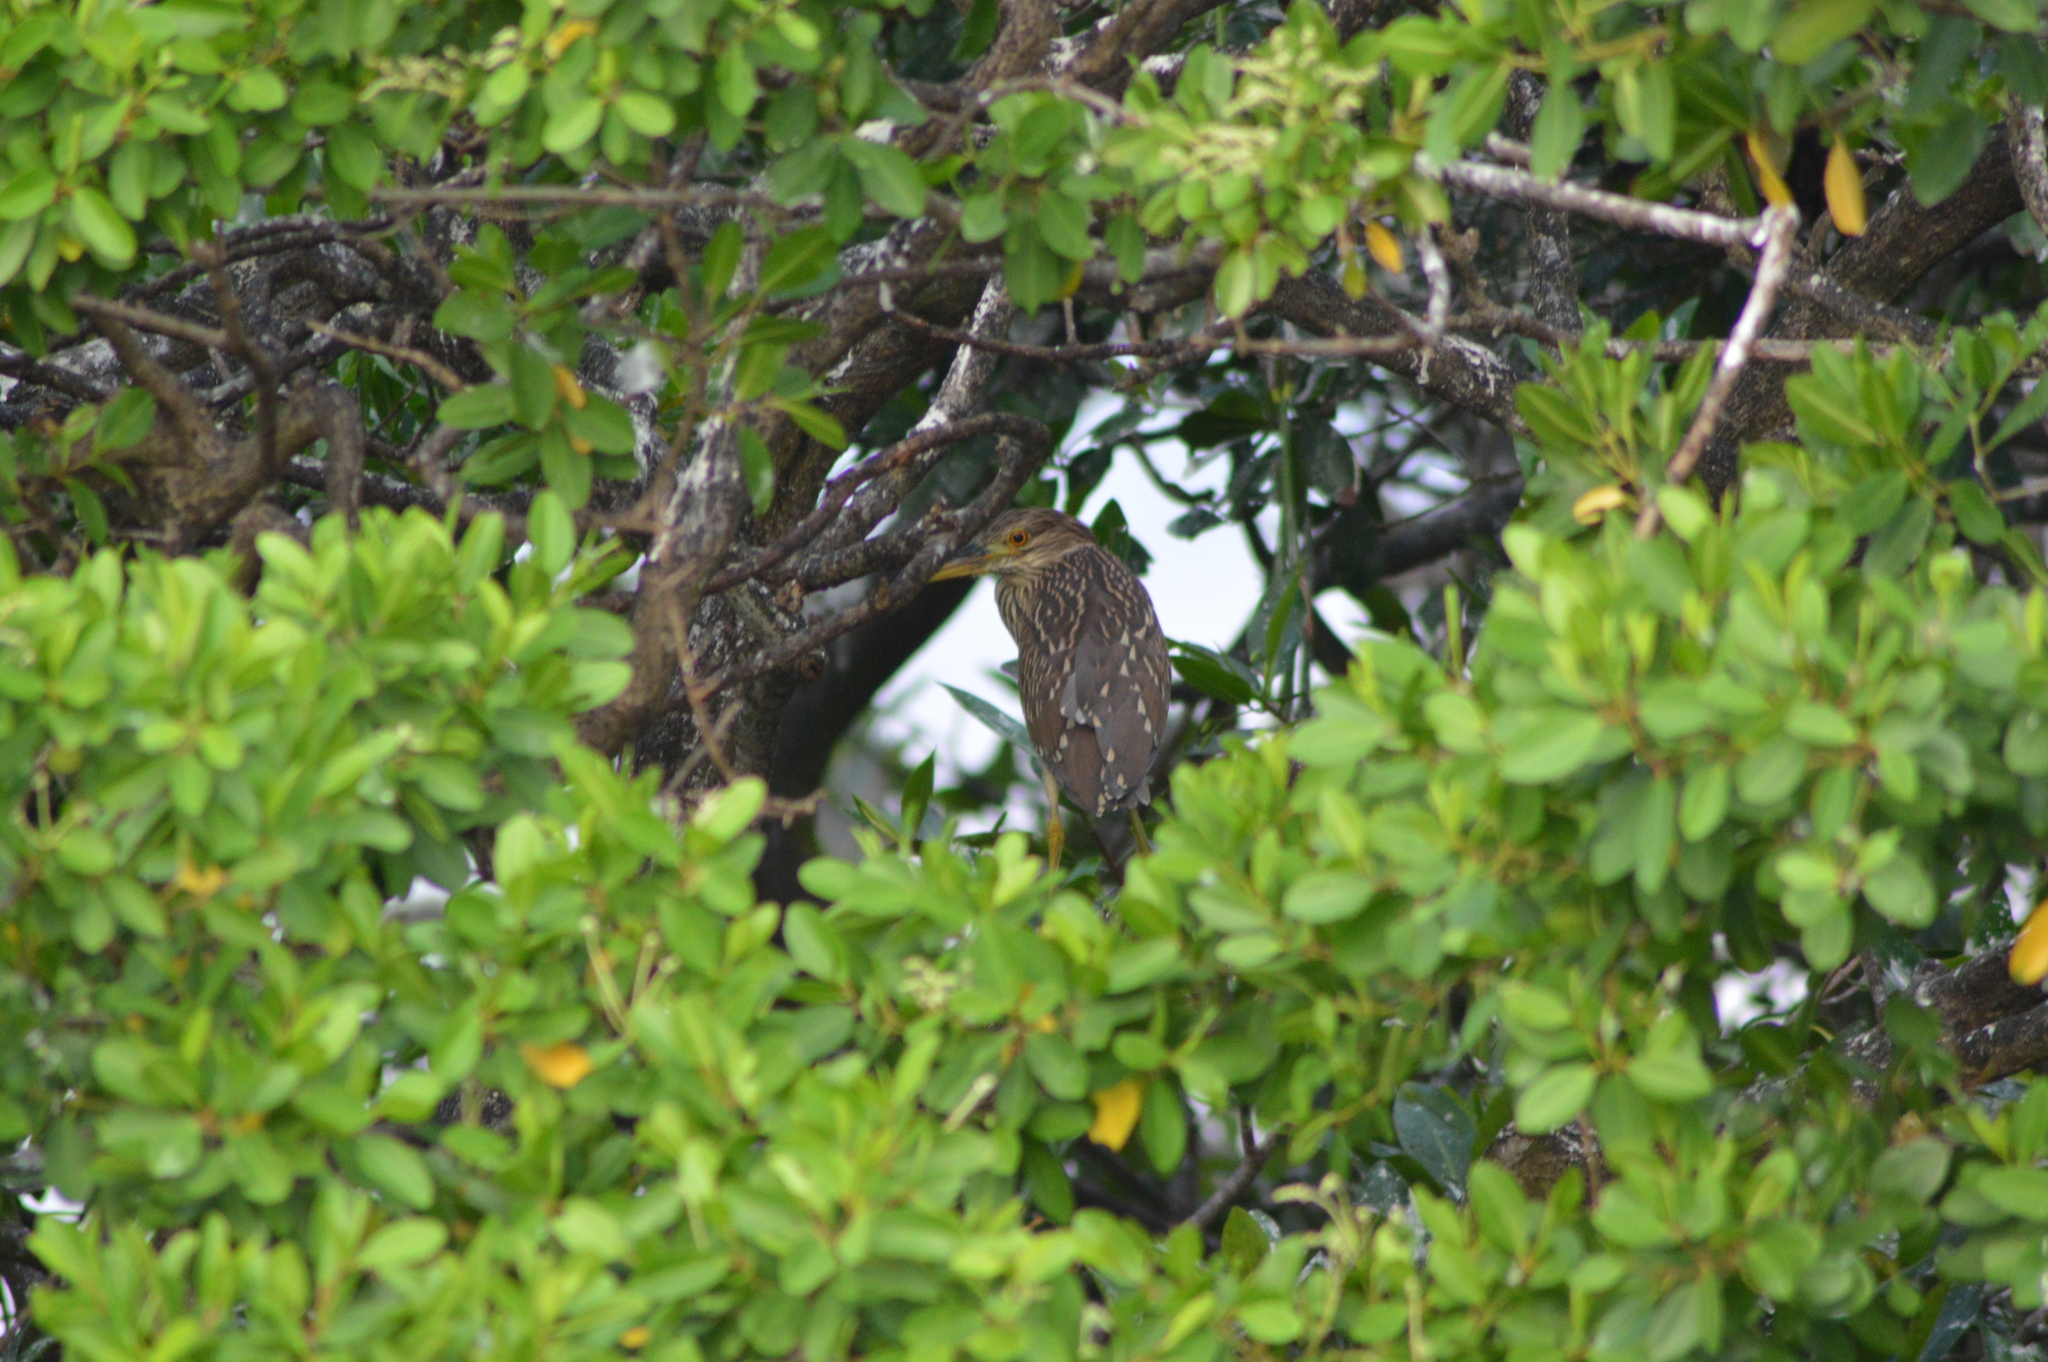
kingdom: Animalia
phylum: Chordata
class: Aves
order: Pelecaniformes
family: Ardeidae
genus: Nycticorax
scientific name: Nycticorax nycticorax
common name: Black-crowned night heron
